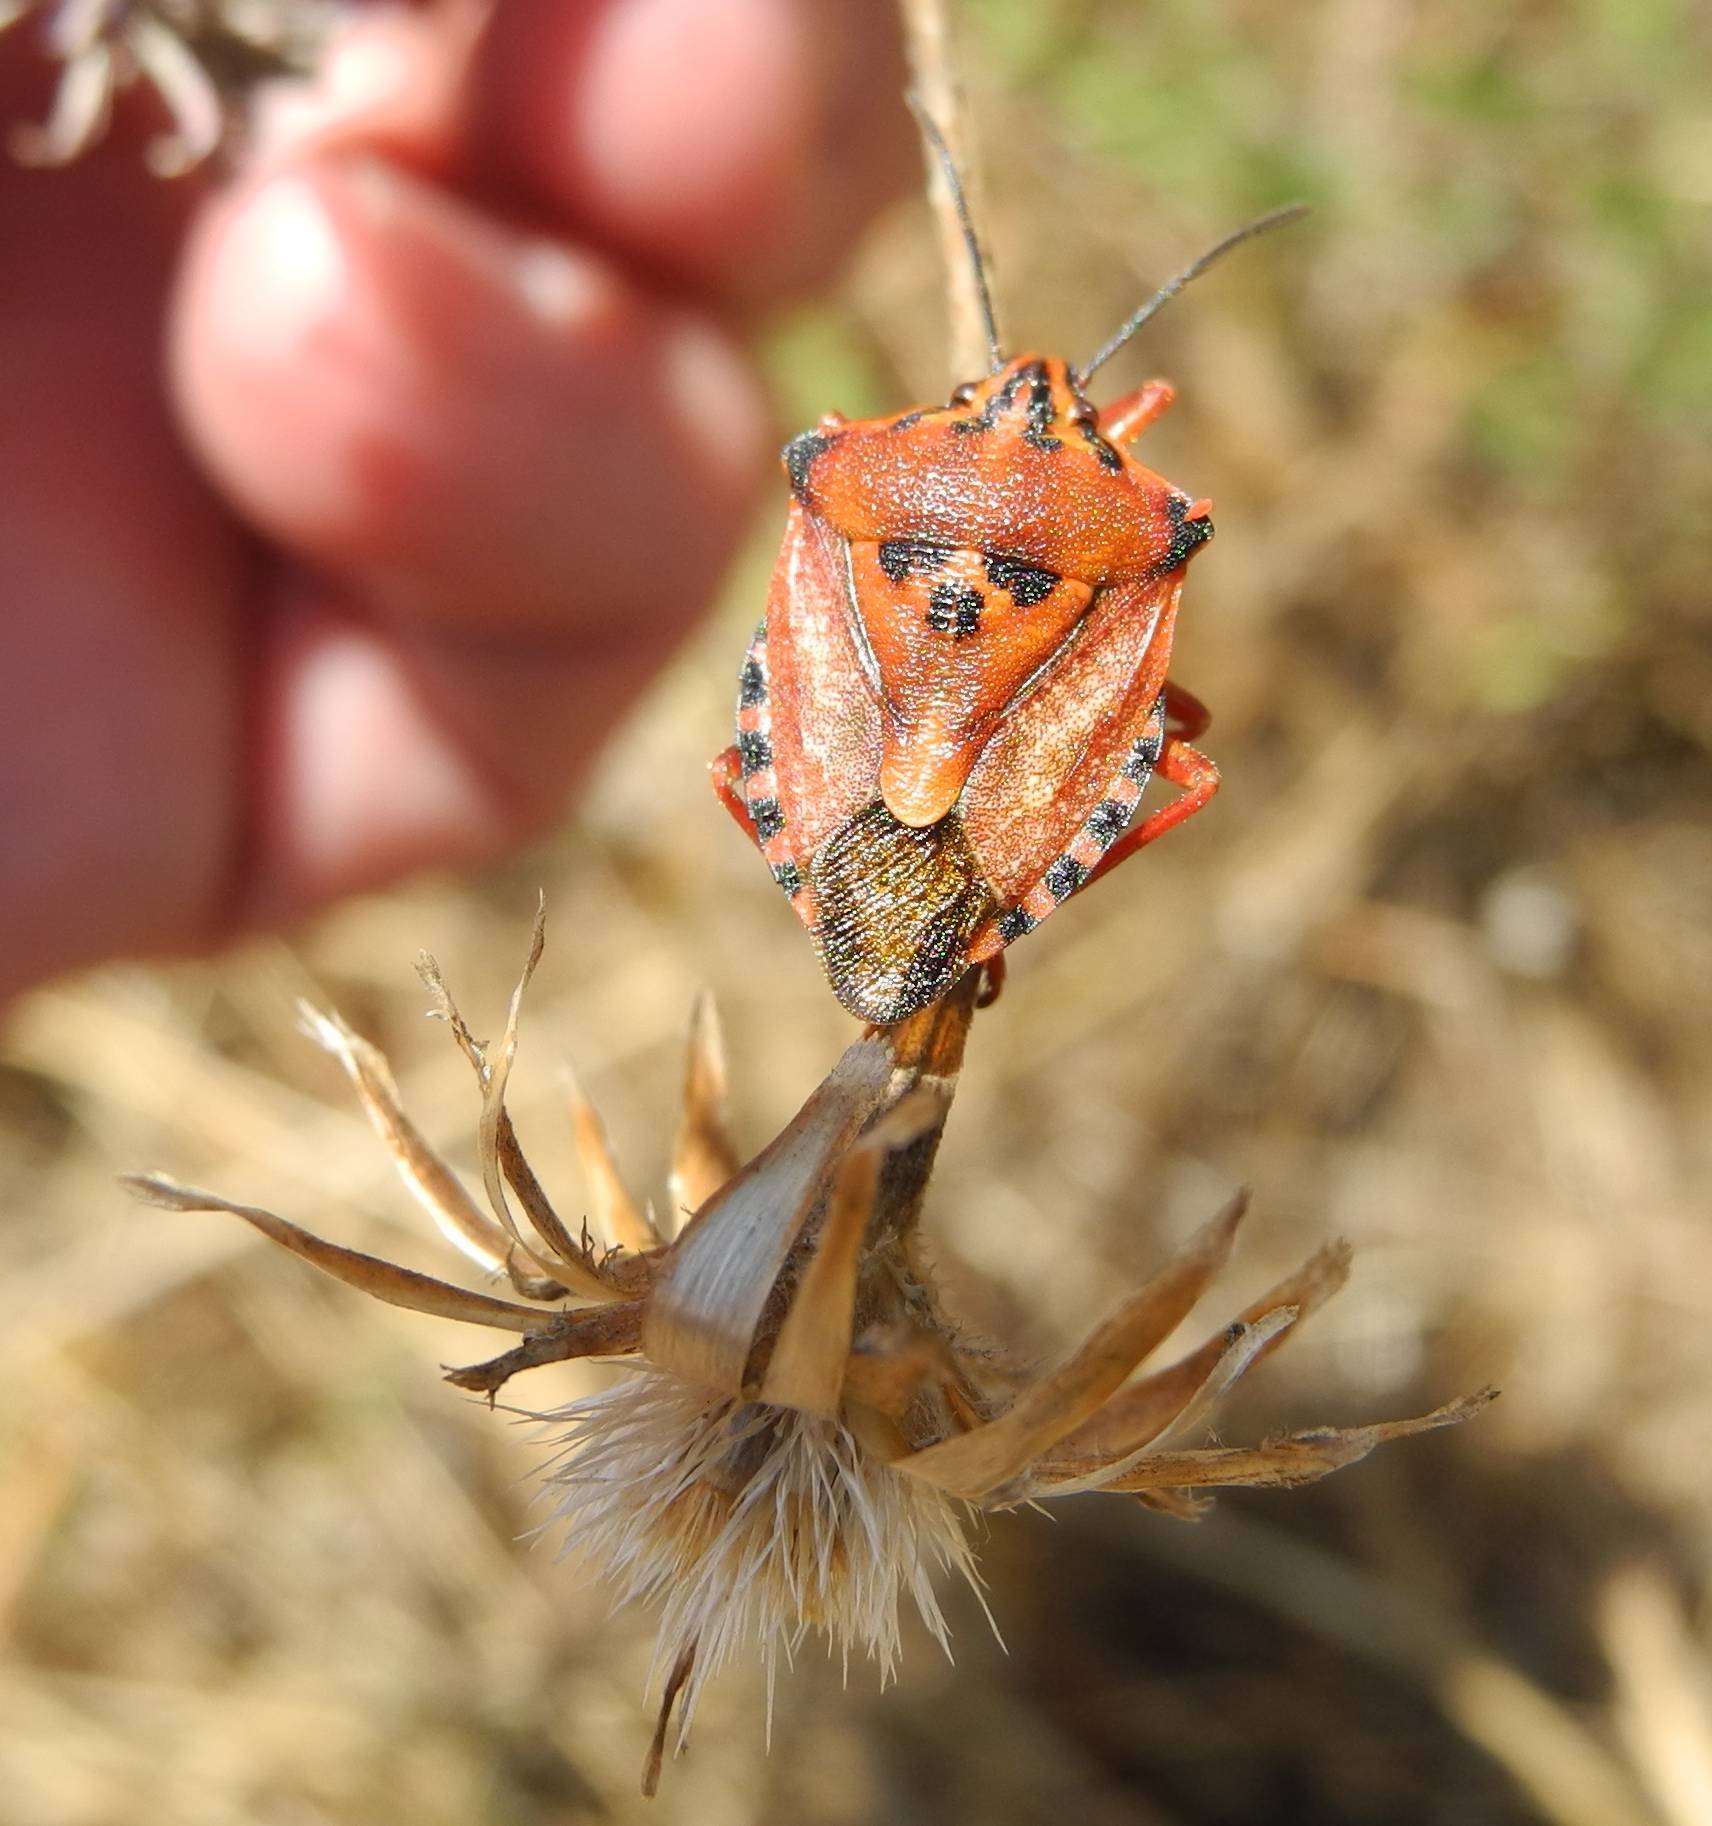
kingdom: Animalia
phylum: Arthropoda
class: Insecta
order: Hemiptera
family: Pentatomidae
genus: Carpocoris
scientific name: Carpocoris mediterraneus
